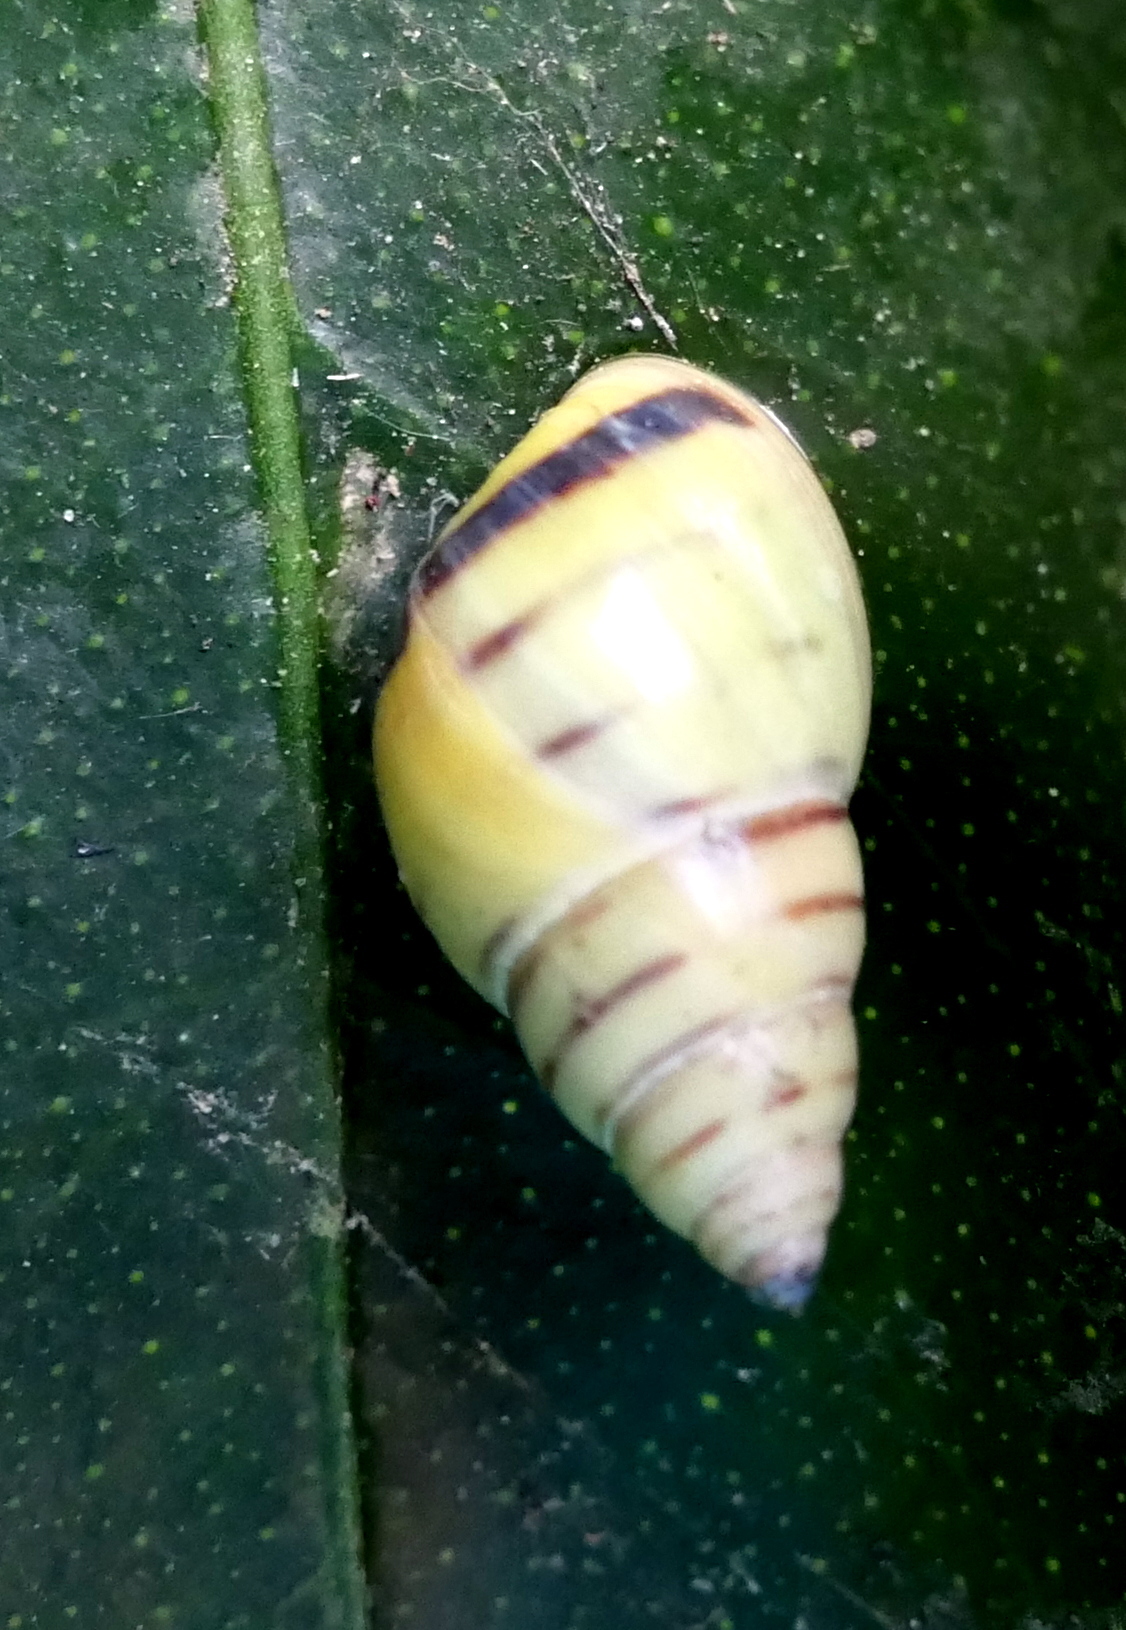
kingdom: Animalia
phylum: Mollusca
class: Gastropoda
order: Stylommatophora
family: Bulimulidae
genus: Drymaeus
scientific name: Drymaeus
